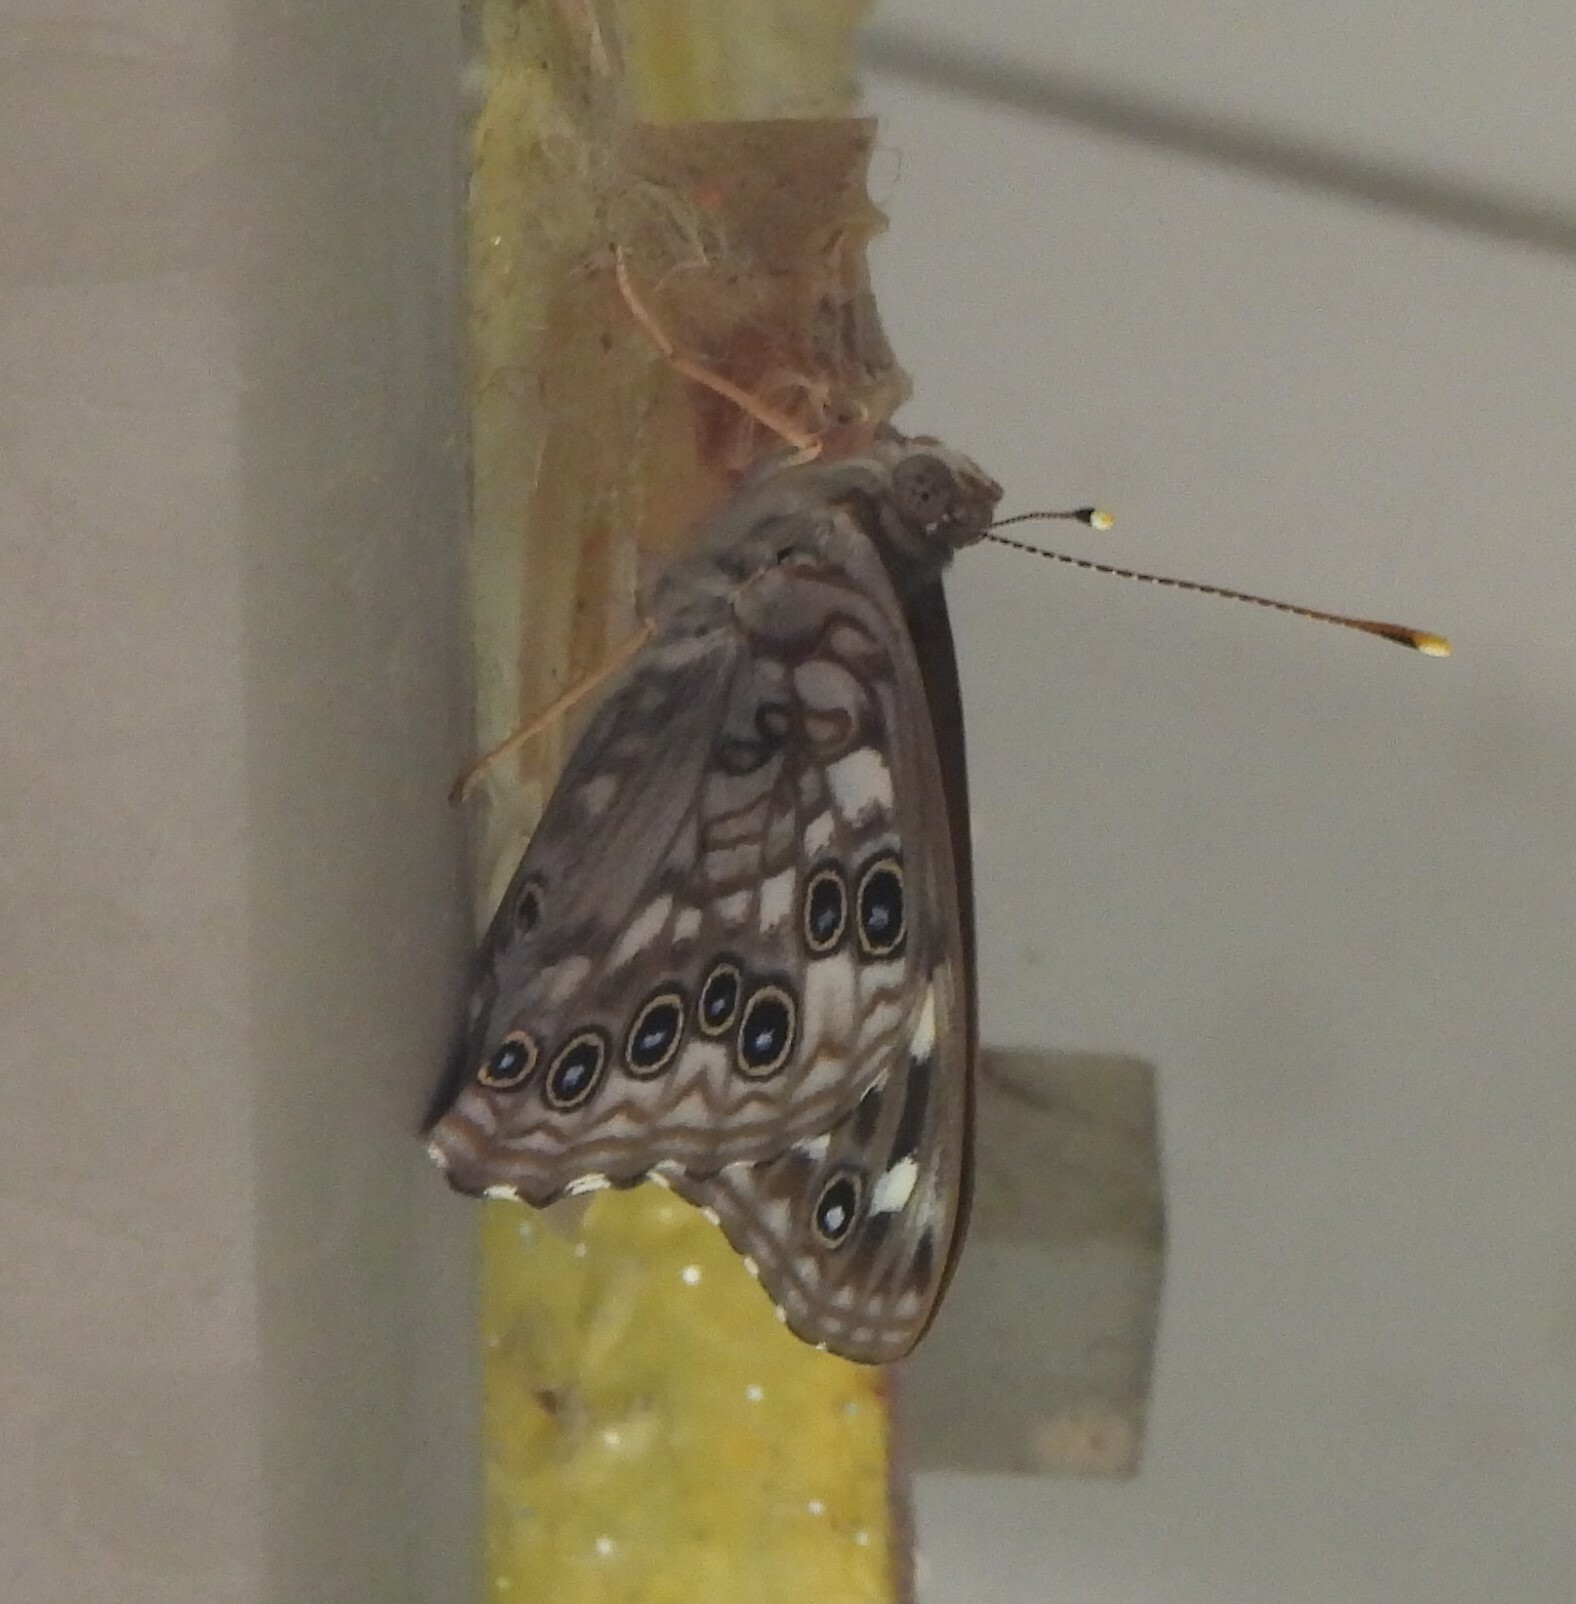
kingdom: Animalia
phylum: Arthropoda
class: Insecta
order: Lepidoptera
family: Nymphalidae
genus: Asterocampa
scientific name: Asterocampa celtis
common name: Hackberry emperor
